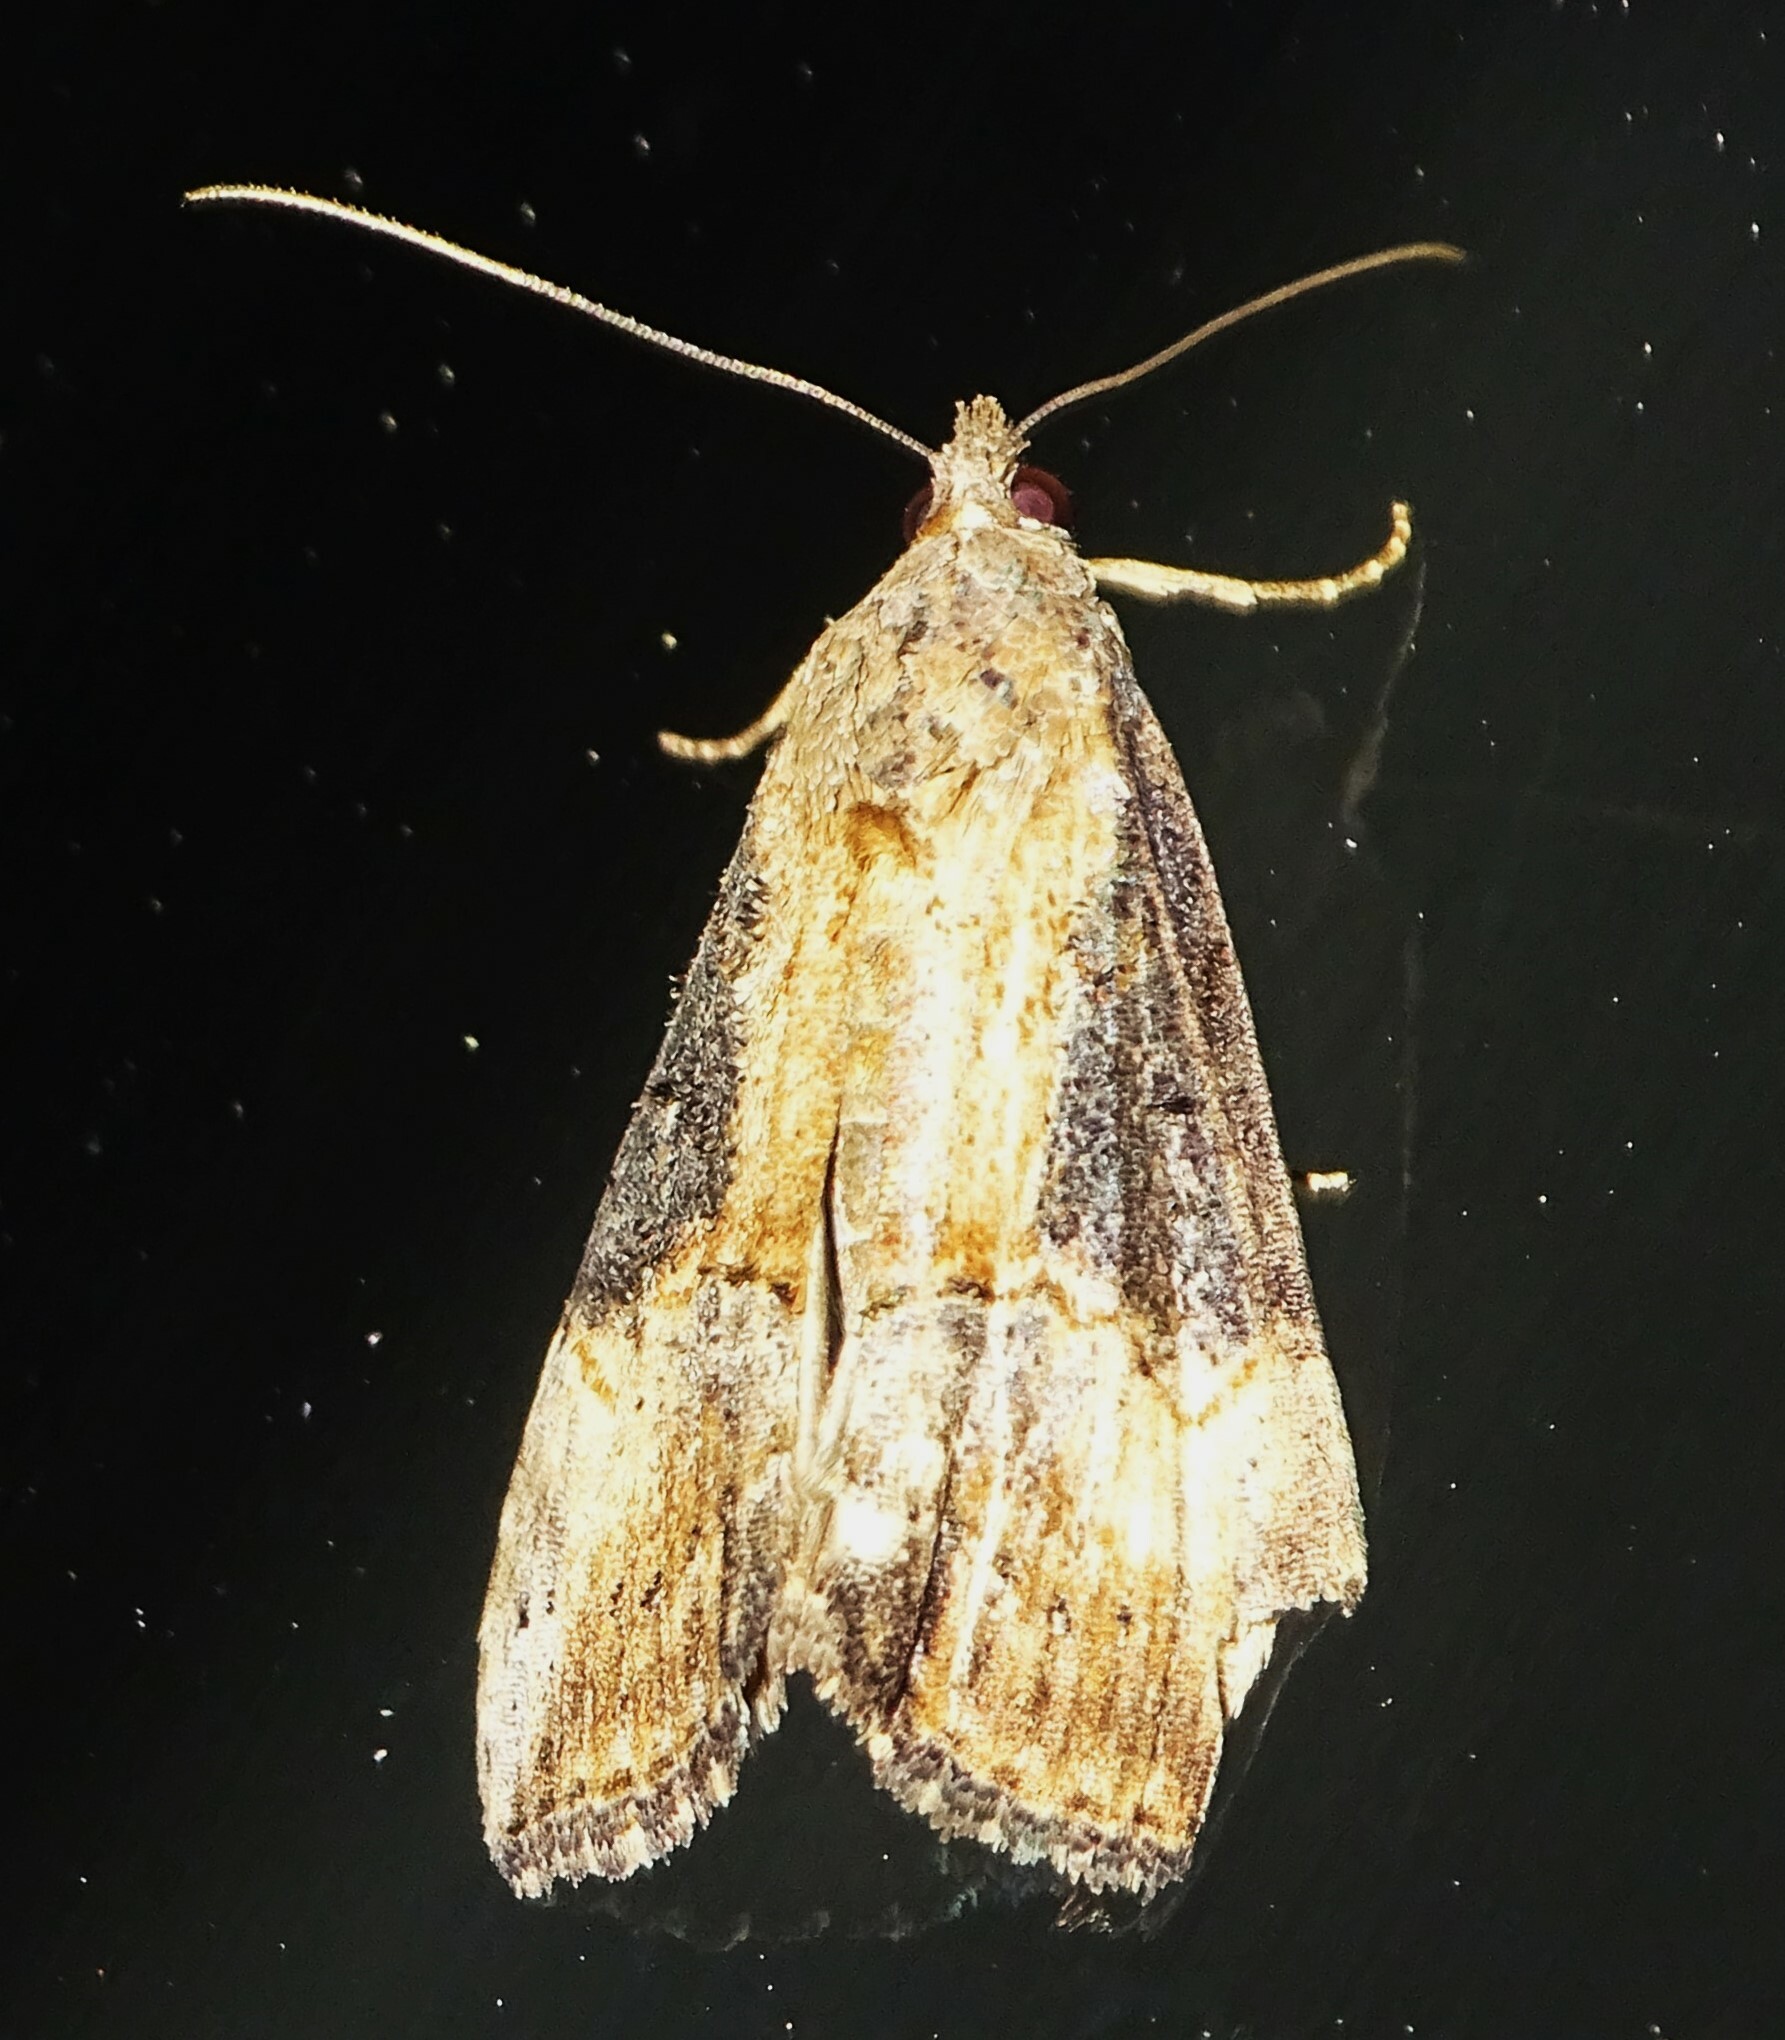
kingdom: Animalia
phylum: Arthropoda
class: Insecta
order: Lepidoptera
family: Erebidae
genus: Hypena
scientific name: Hypena scabra
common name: Green cloverworm
